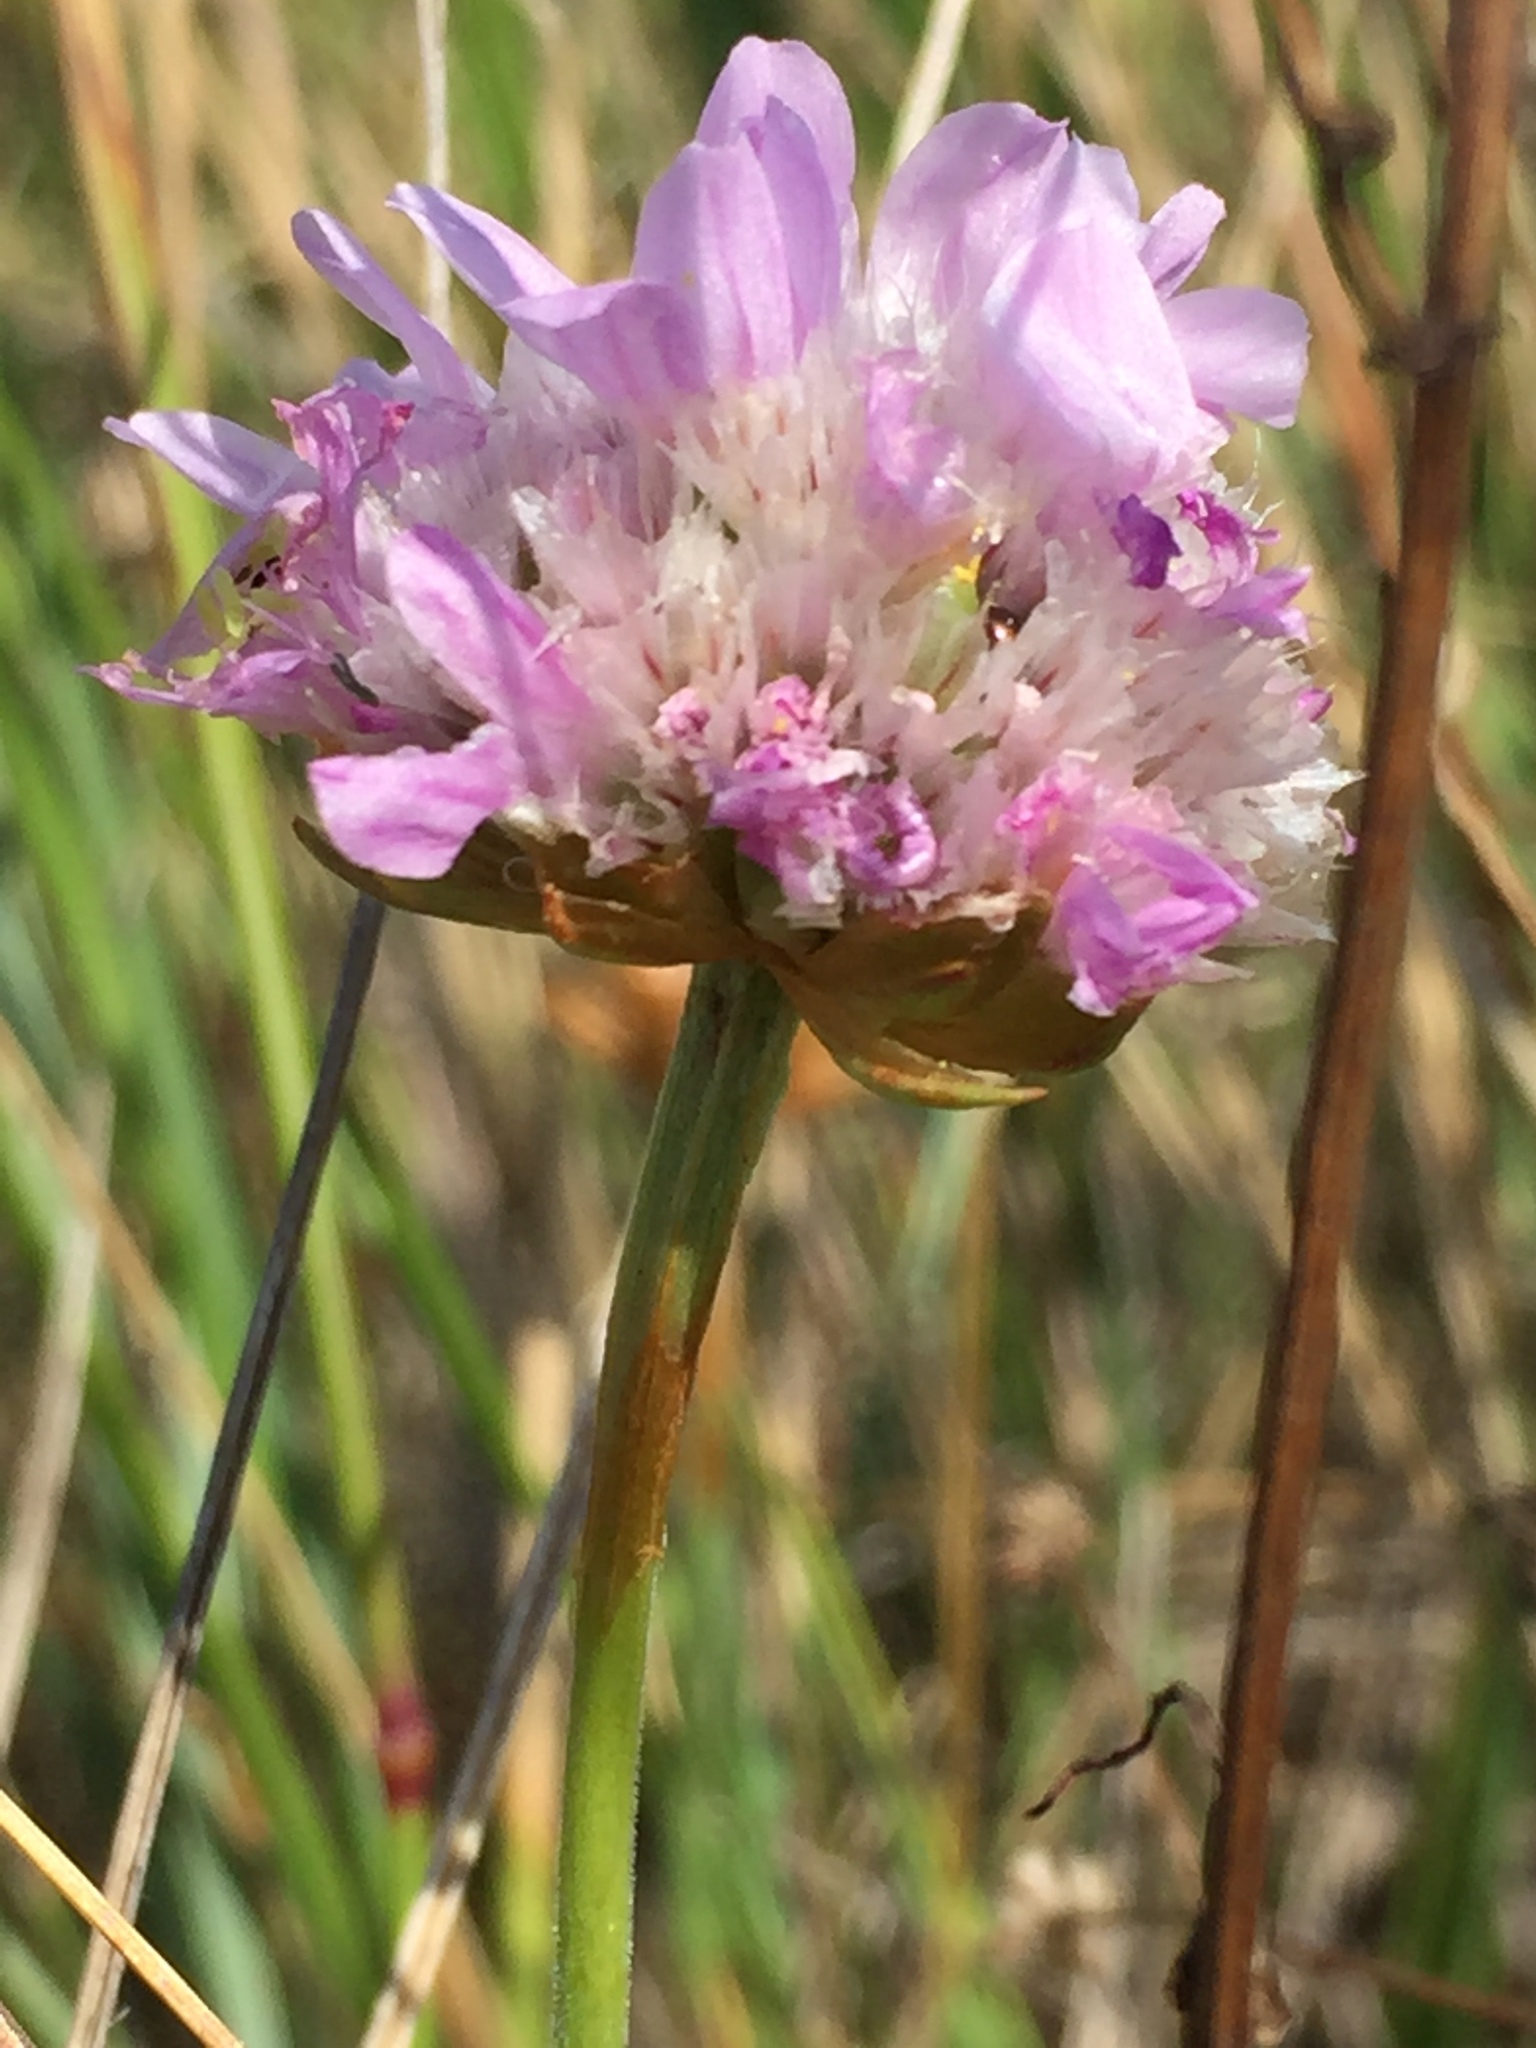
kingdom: Plantae
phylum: Tracheophyta
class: Magnoliopsida
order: Caryophyllales
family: Plumbaginaceae
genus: Armeria
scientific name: Armeria maritima
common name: Thrift
